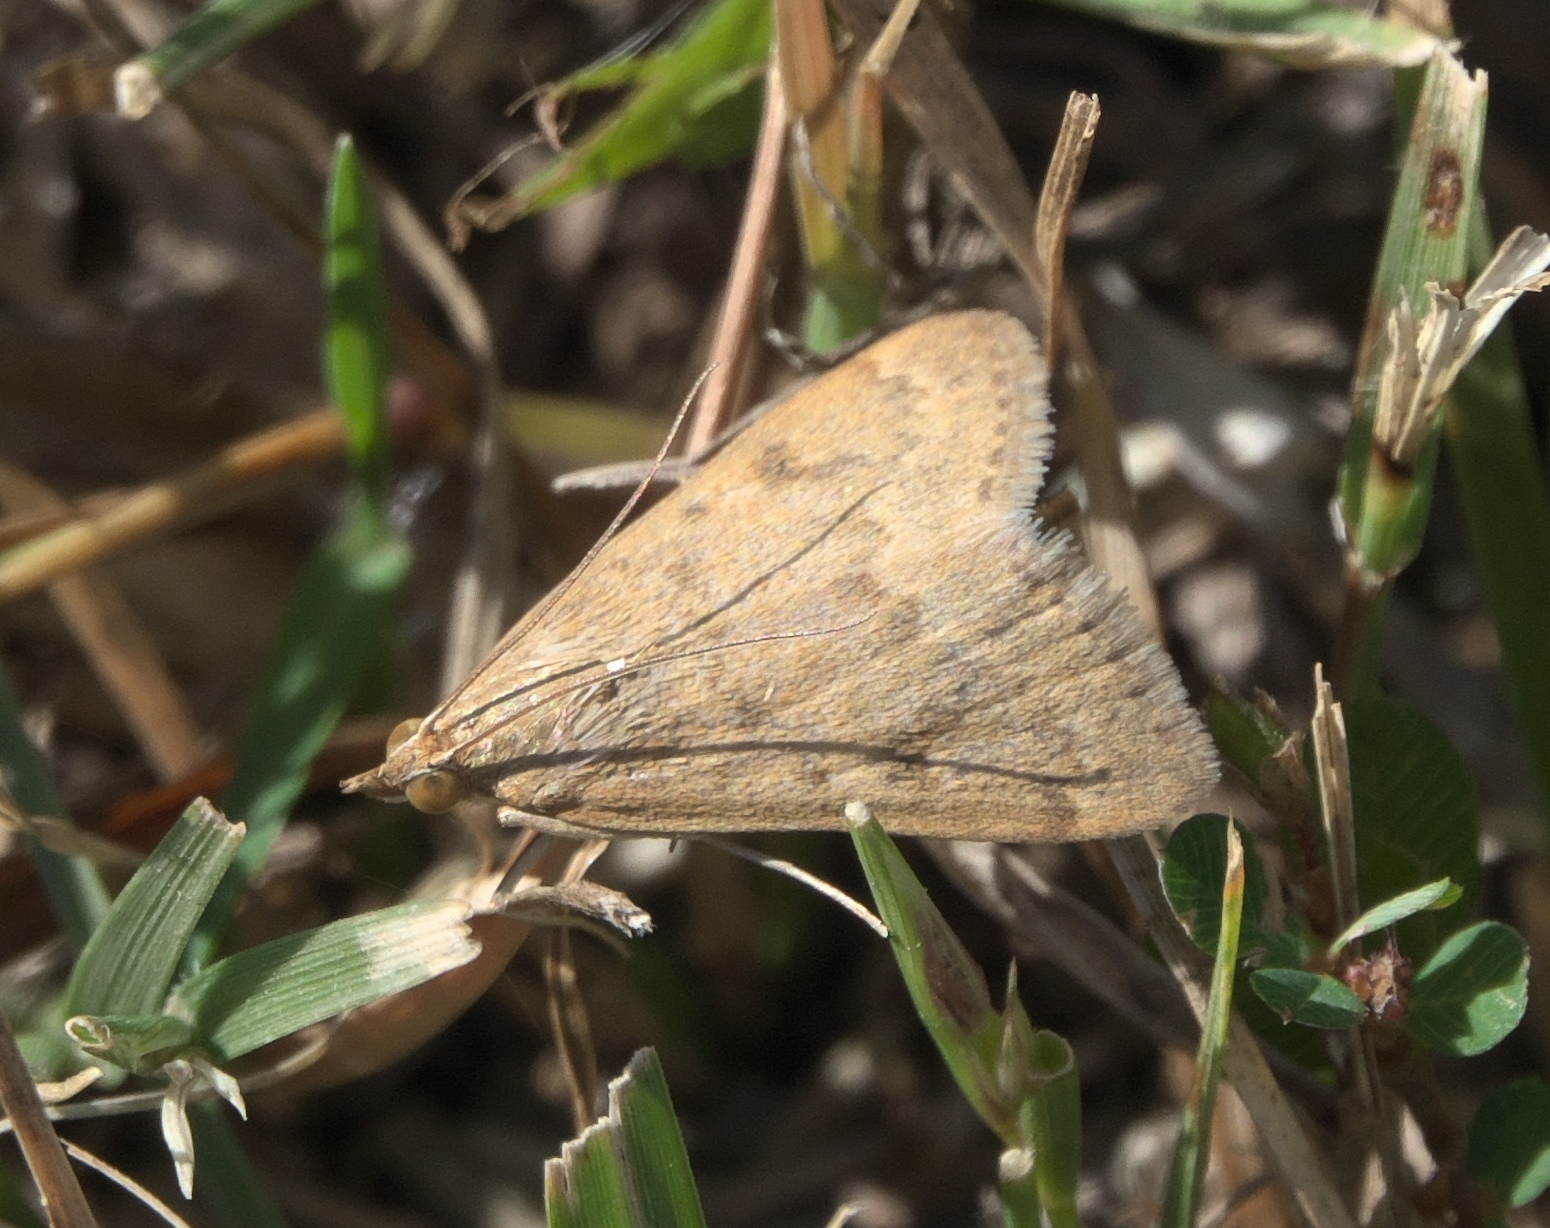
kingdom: Animalia
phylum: Arthropoda
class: Insecta
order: Lepidoptera
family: Crambidae
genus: Achyra
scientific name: Achyra rantalis
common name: Garden webworm
